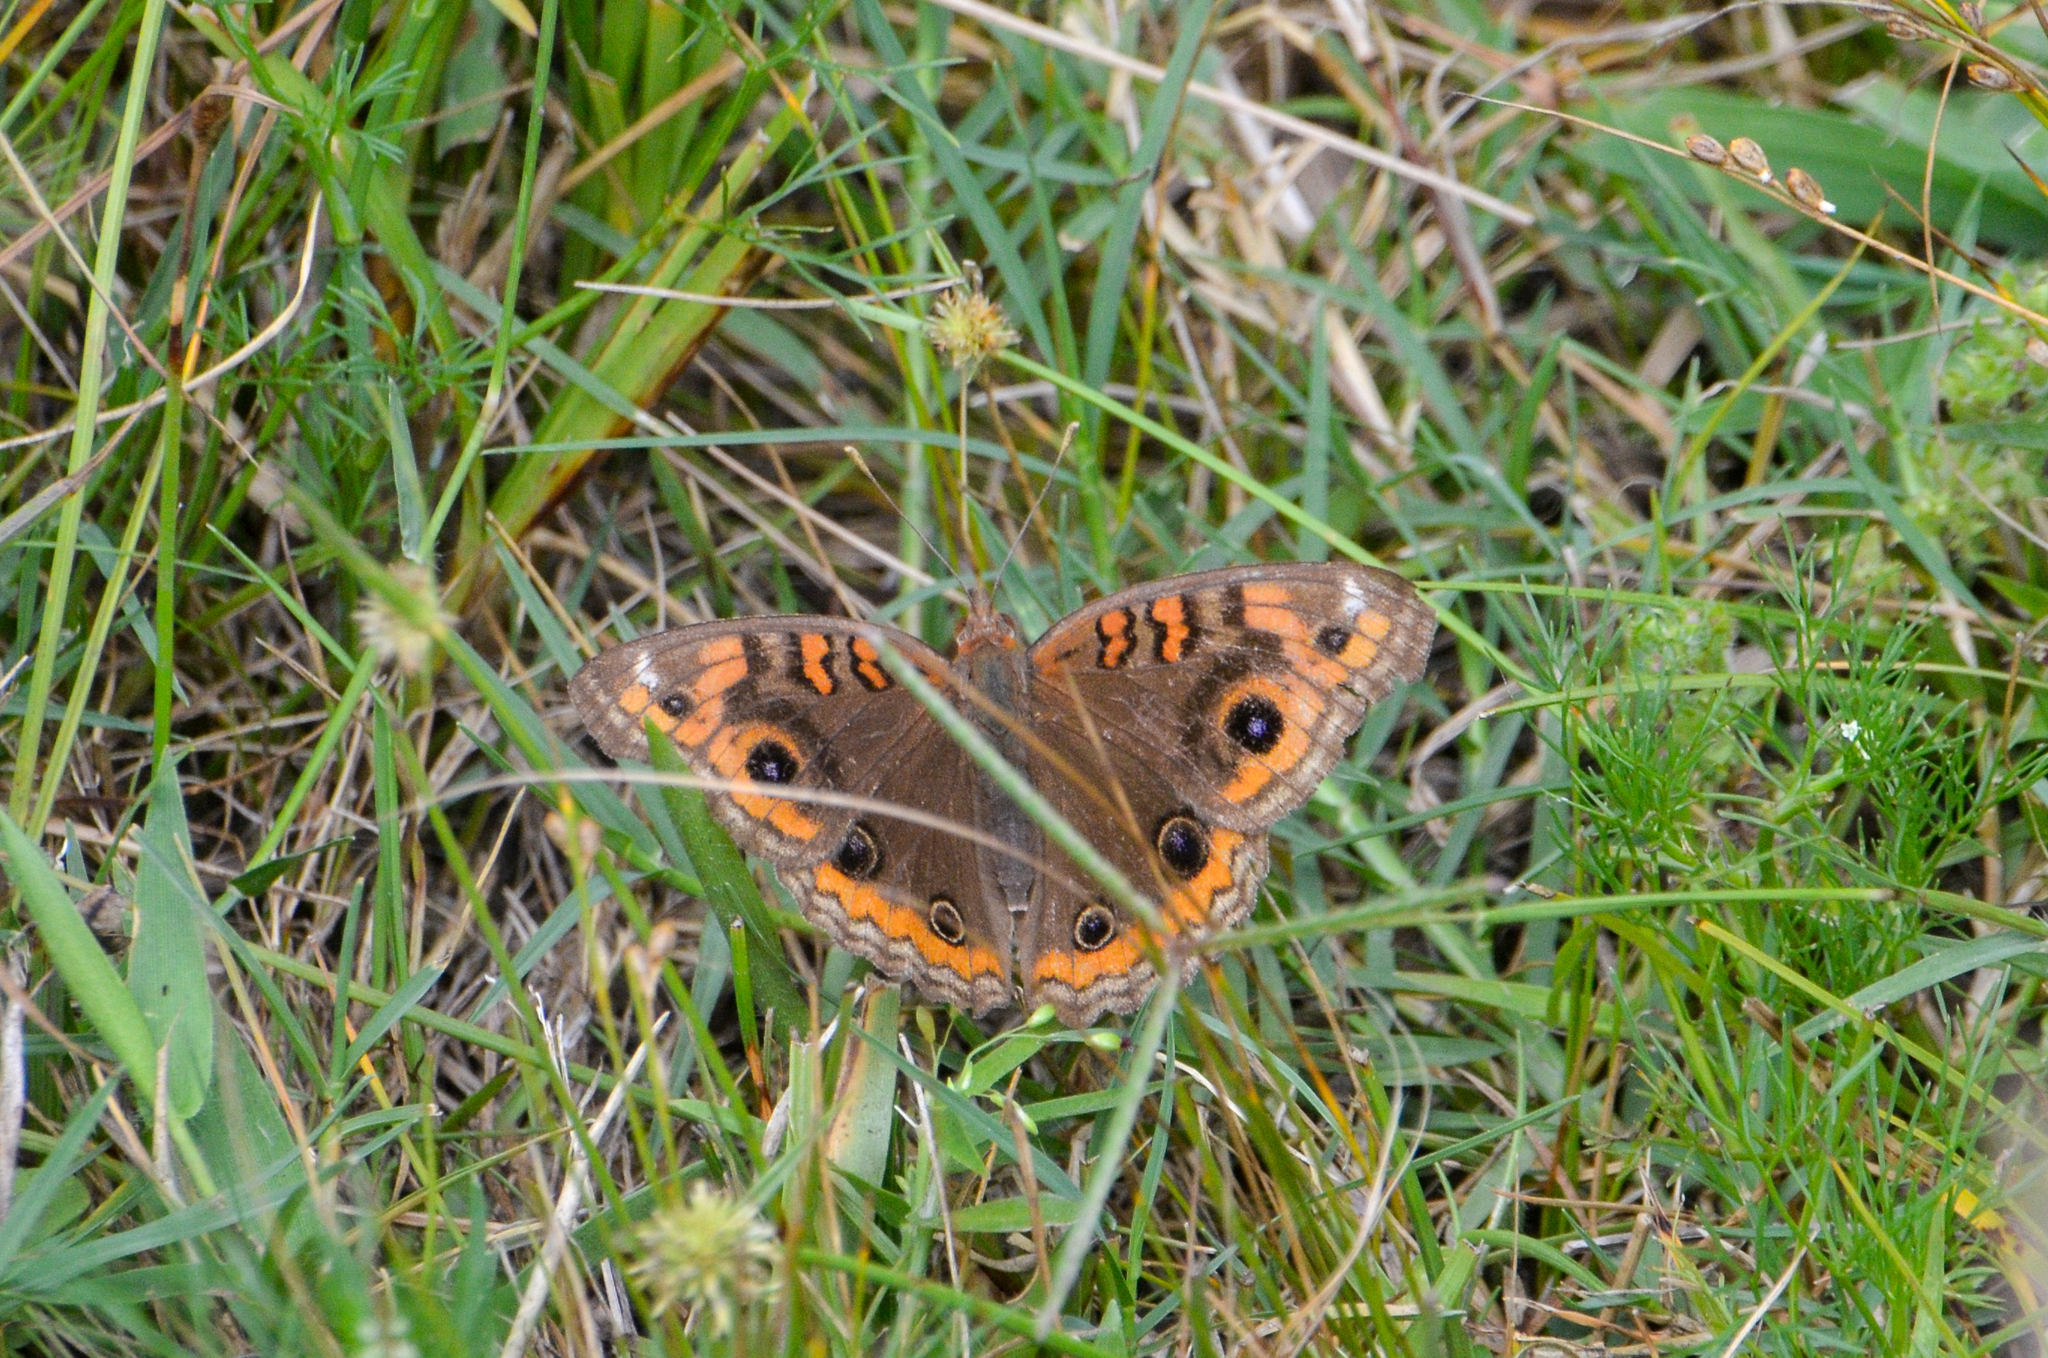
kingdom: Animalia
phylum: Arthropoda
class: Insecta
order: Lepidoptera
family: Nymphalidae
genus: Junonia
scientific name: Junonia lavinia
